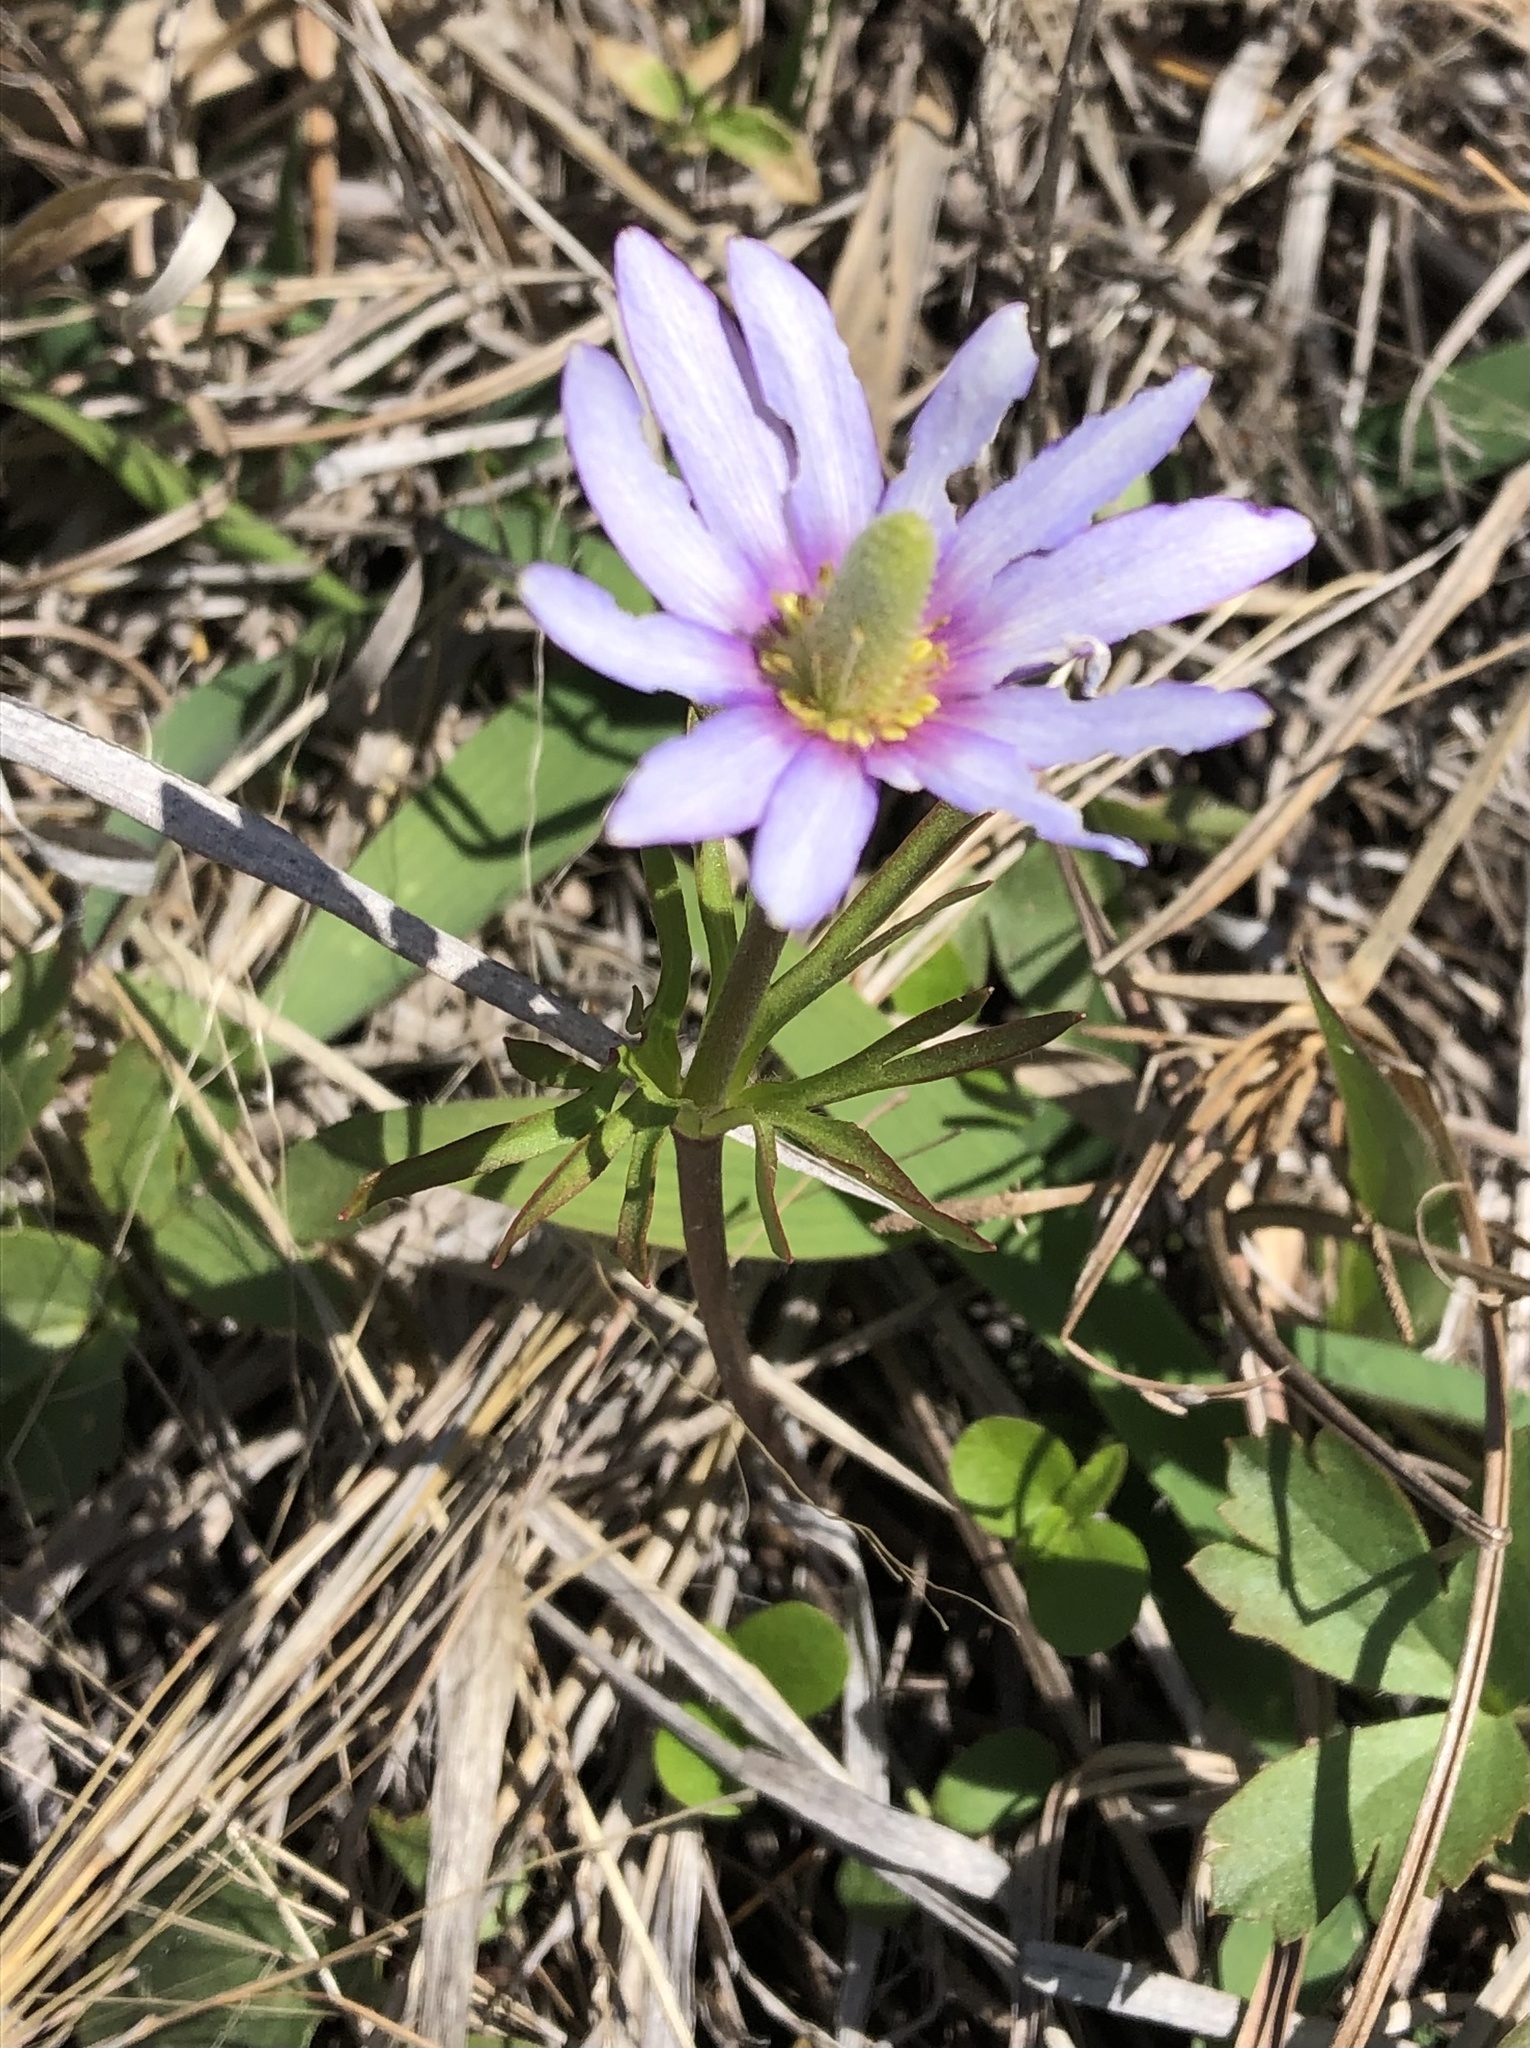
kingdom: Plantae
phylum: Tracheophyta
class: Magnoliopsida
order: Ranunculales
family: Ranunculaceae
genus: Anemone
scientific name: Anemone berlandieri
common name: Ten-petal anemone
